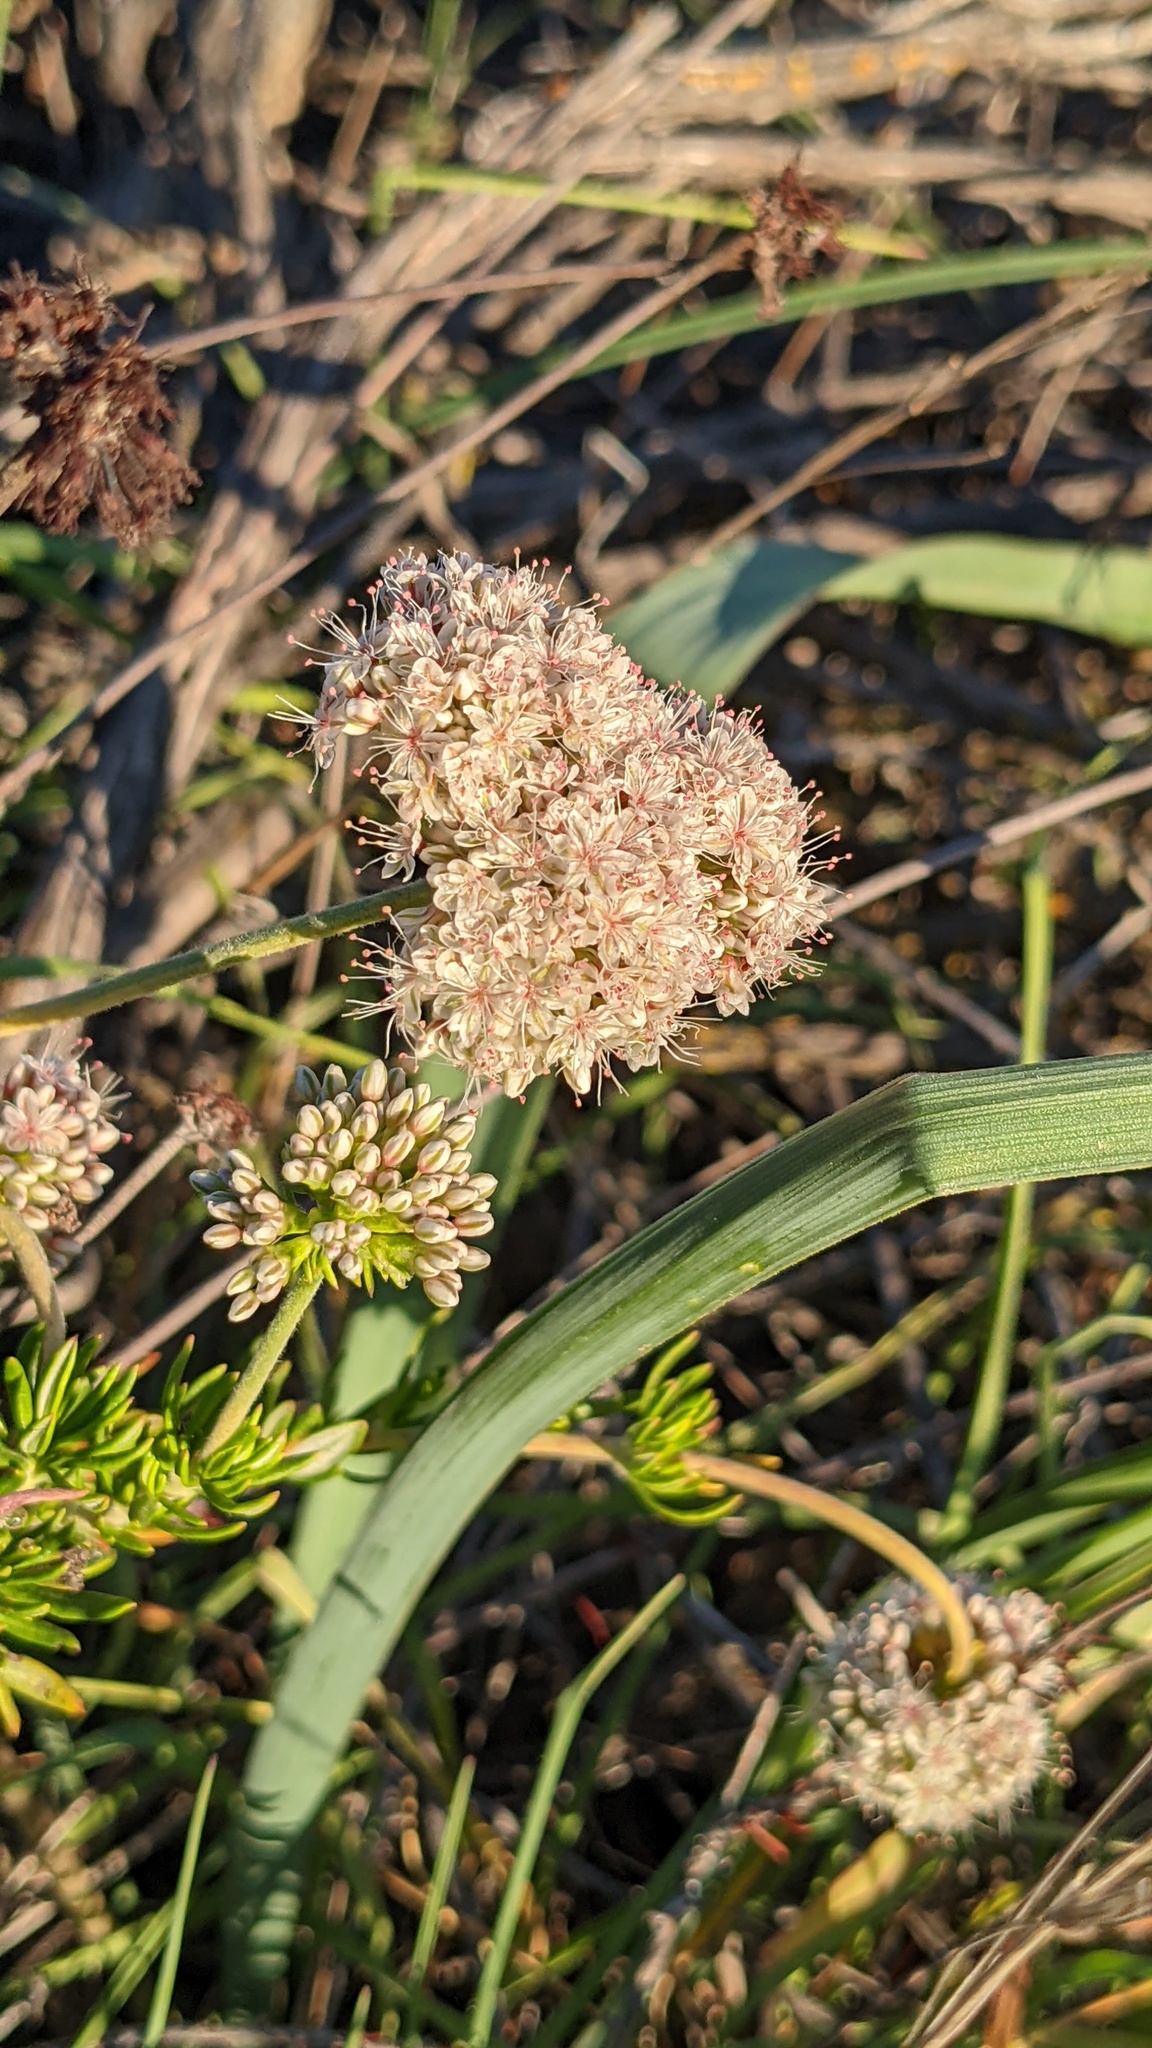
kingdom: Plantae
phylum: Tracheophyta
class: Magnoliopsida
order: Caryophyllales
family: Polygonaceae
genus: Eriogonum
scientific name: Eriogonum fasciculatum
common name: California wild buckwheat
